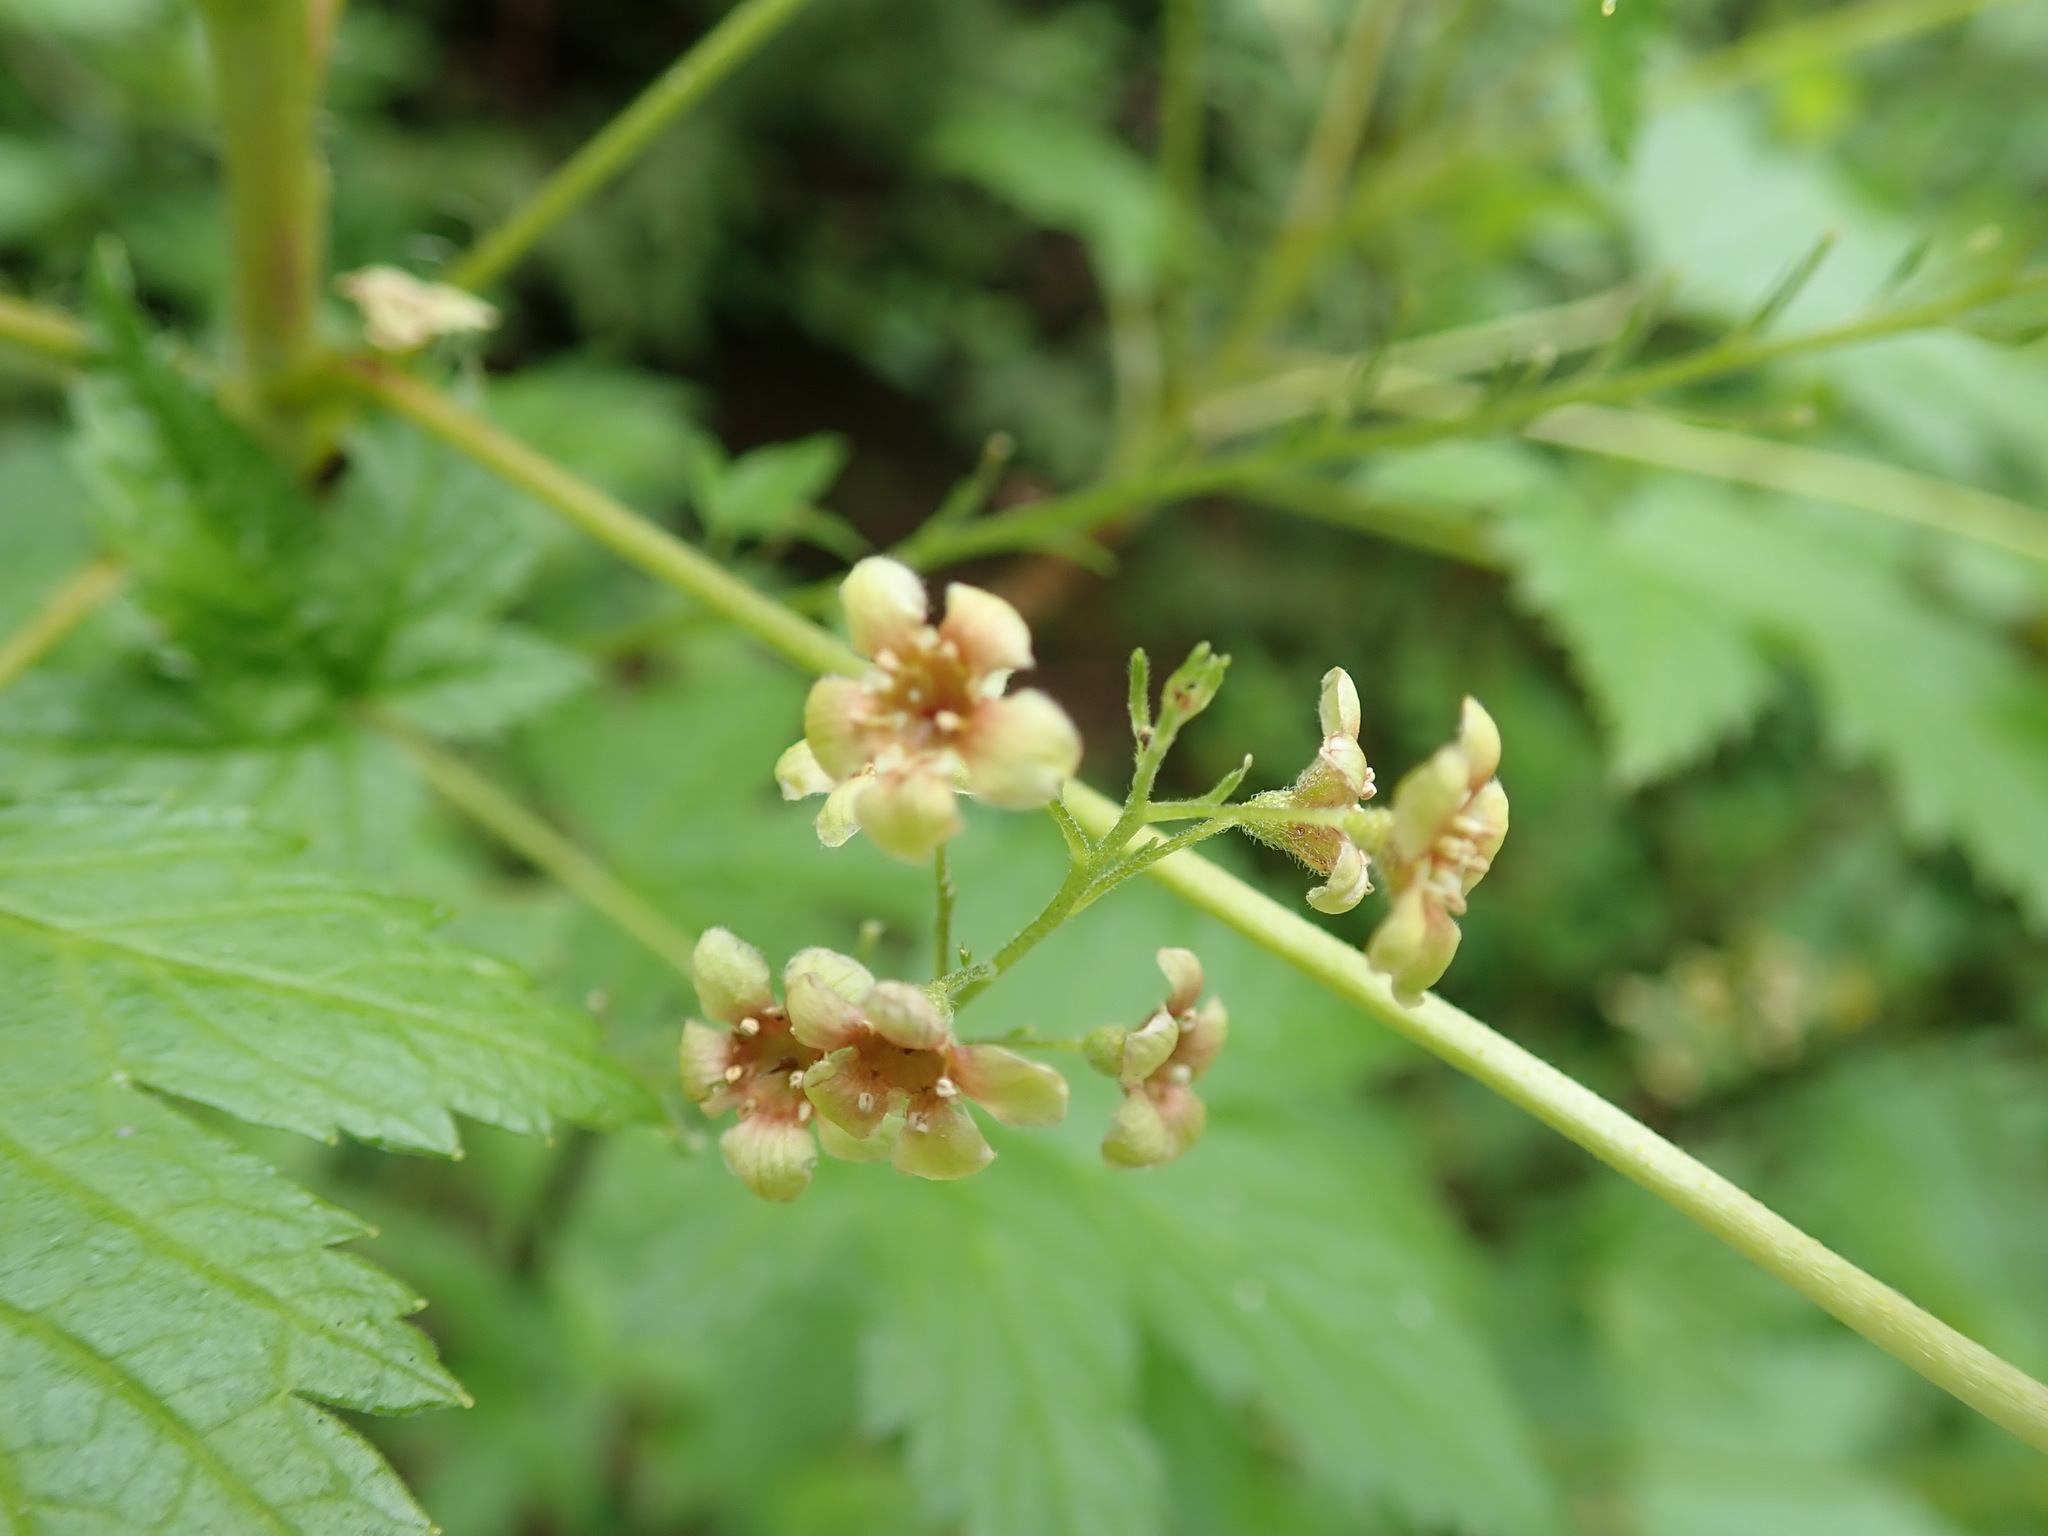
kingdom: Plantae
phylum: Tracheophyta
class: Magnoliopsida
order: Saxifragales
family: Grossulariaceae
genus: Ribes
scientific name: Ribes bracteosum
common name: California black currant
